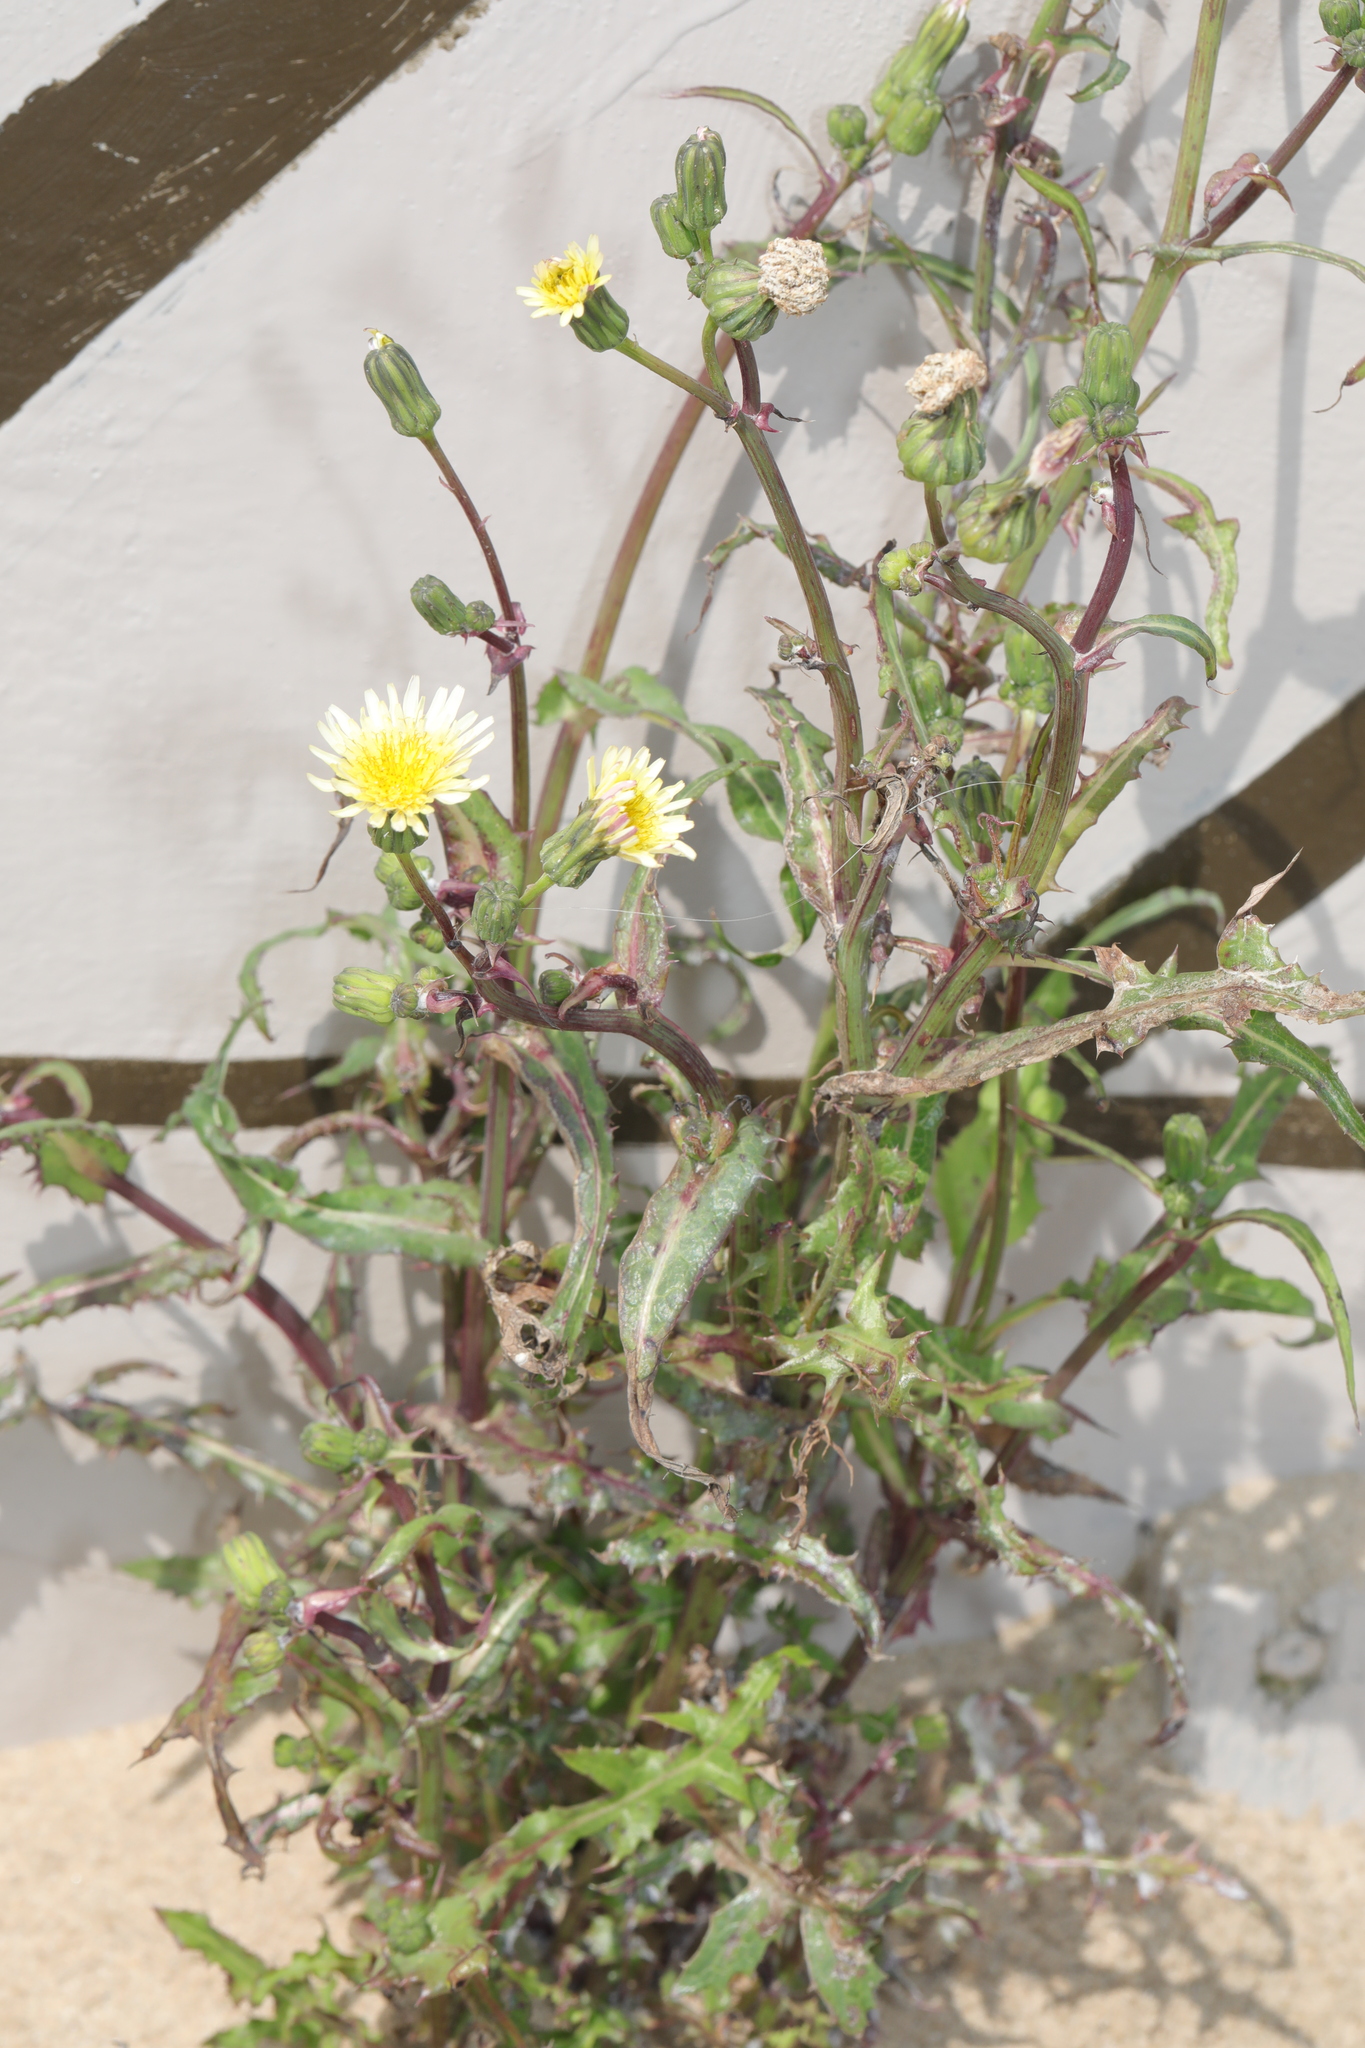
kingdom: Plantae
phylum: Tracheophyta
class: Magnoliopsida
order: Asterales
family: Asteraceae
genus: Sonchus
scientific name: Sonchus oleraceus
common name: Common sowthistle
